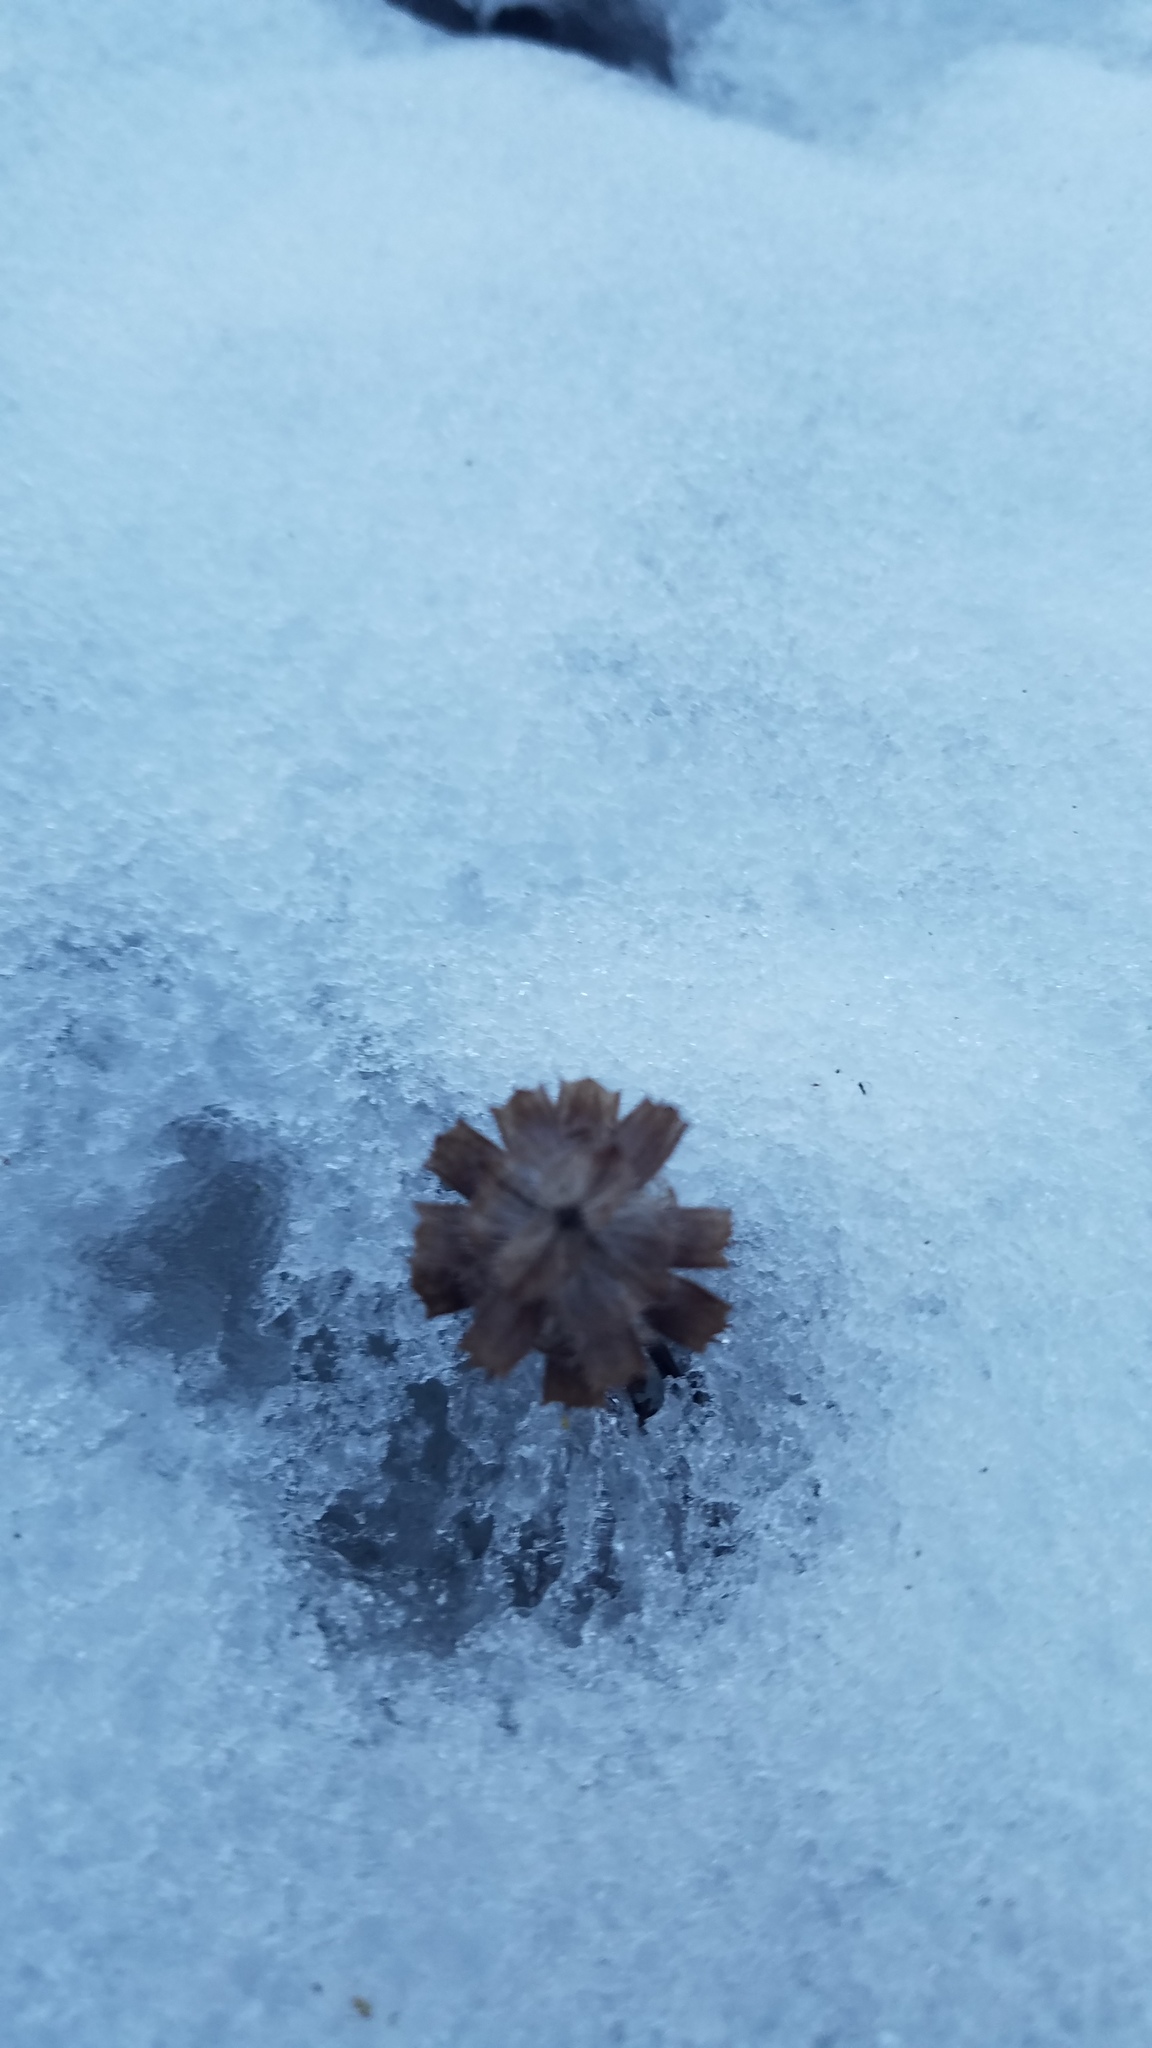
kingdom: Plantae
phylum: Tracheophyta
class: Magnoliopsida
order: Lamiales
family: Lamiaceae
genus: Prunella
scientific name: Prunella vulgaris
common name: Heal-all
